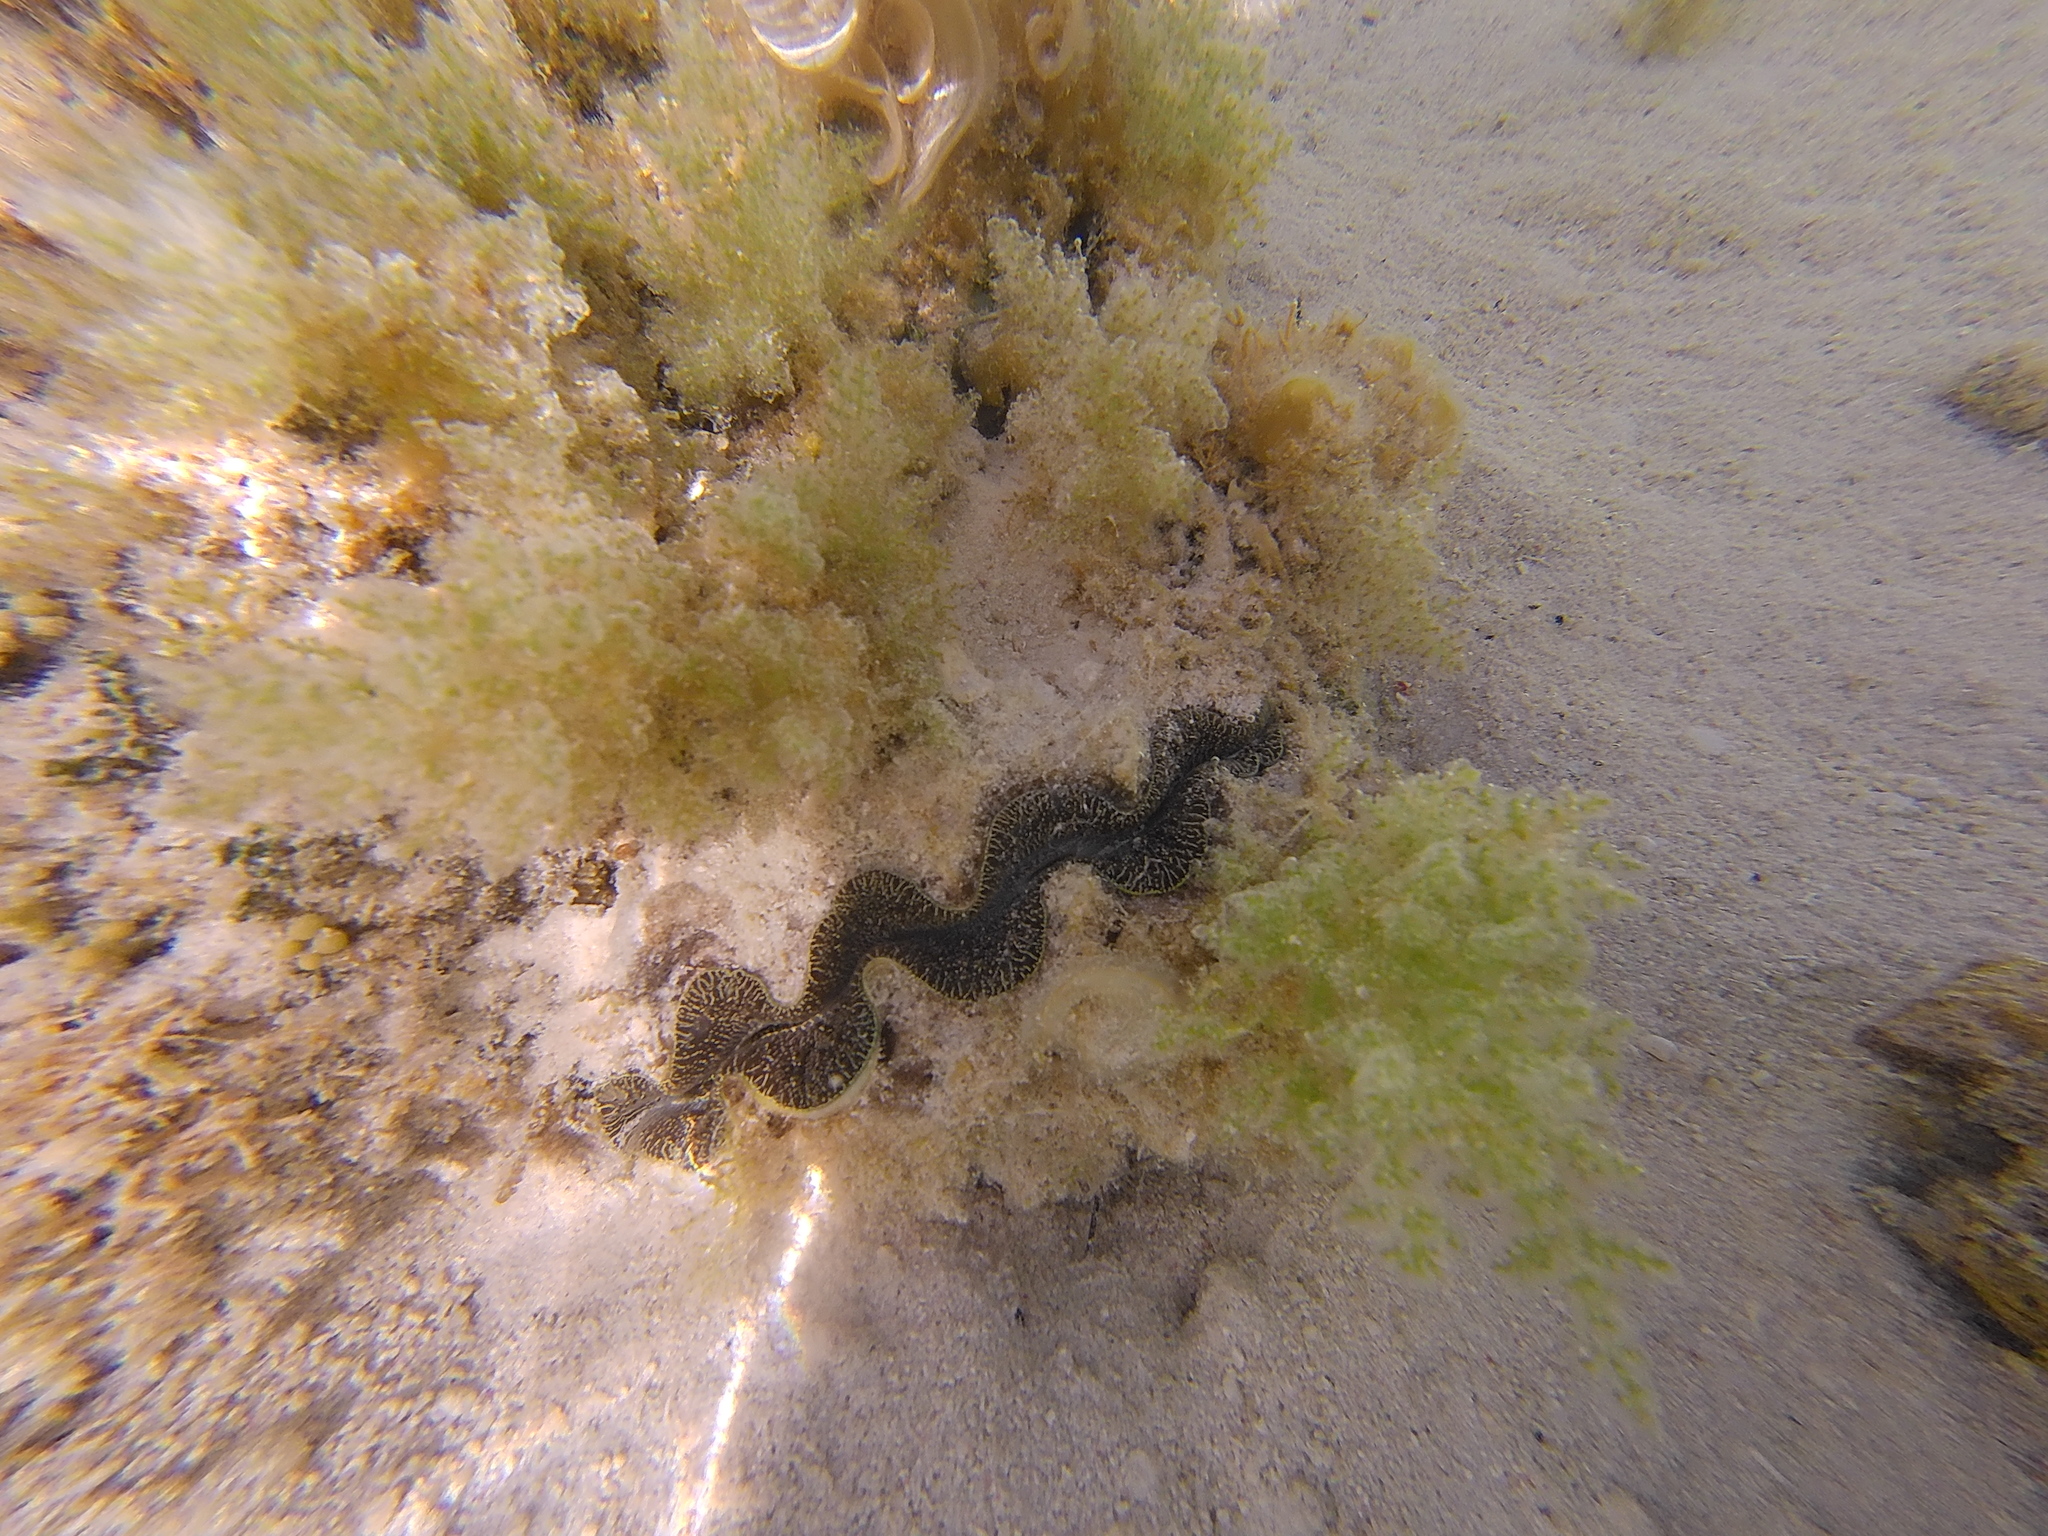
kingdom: Animalia
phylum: Mollusca
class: Bivalvia
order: Cardiida
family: Cardiidae
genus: Tridacna
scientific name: Tridacna maxima
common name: Small giant clam
